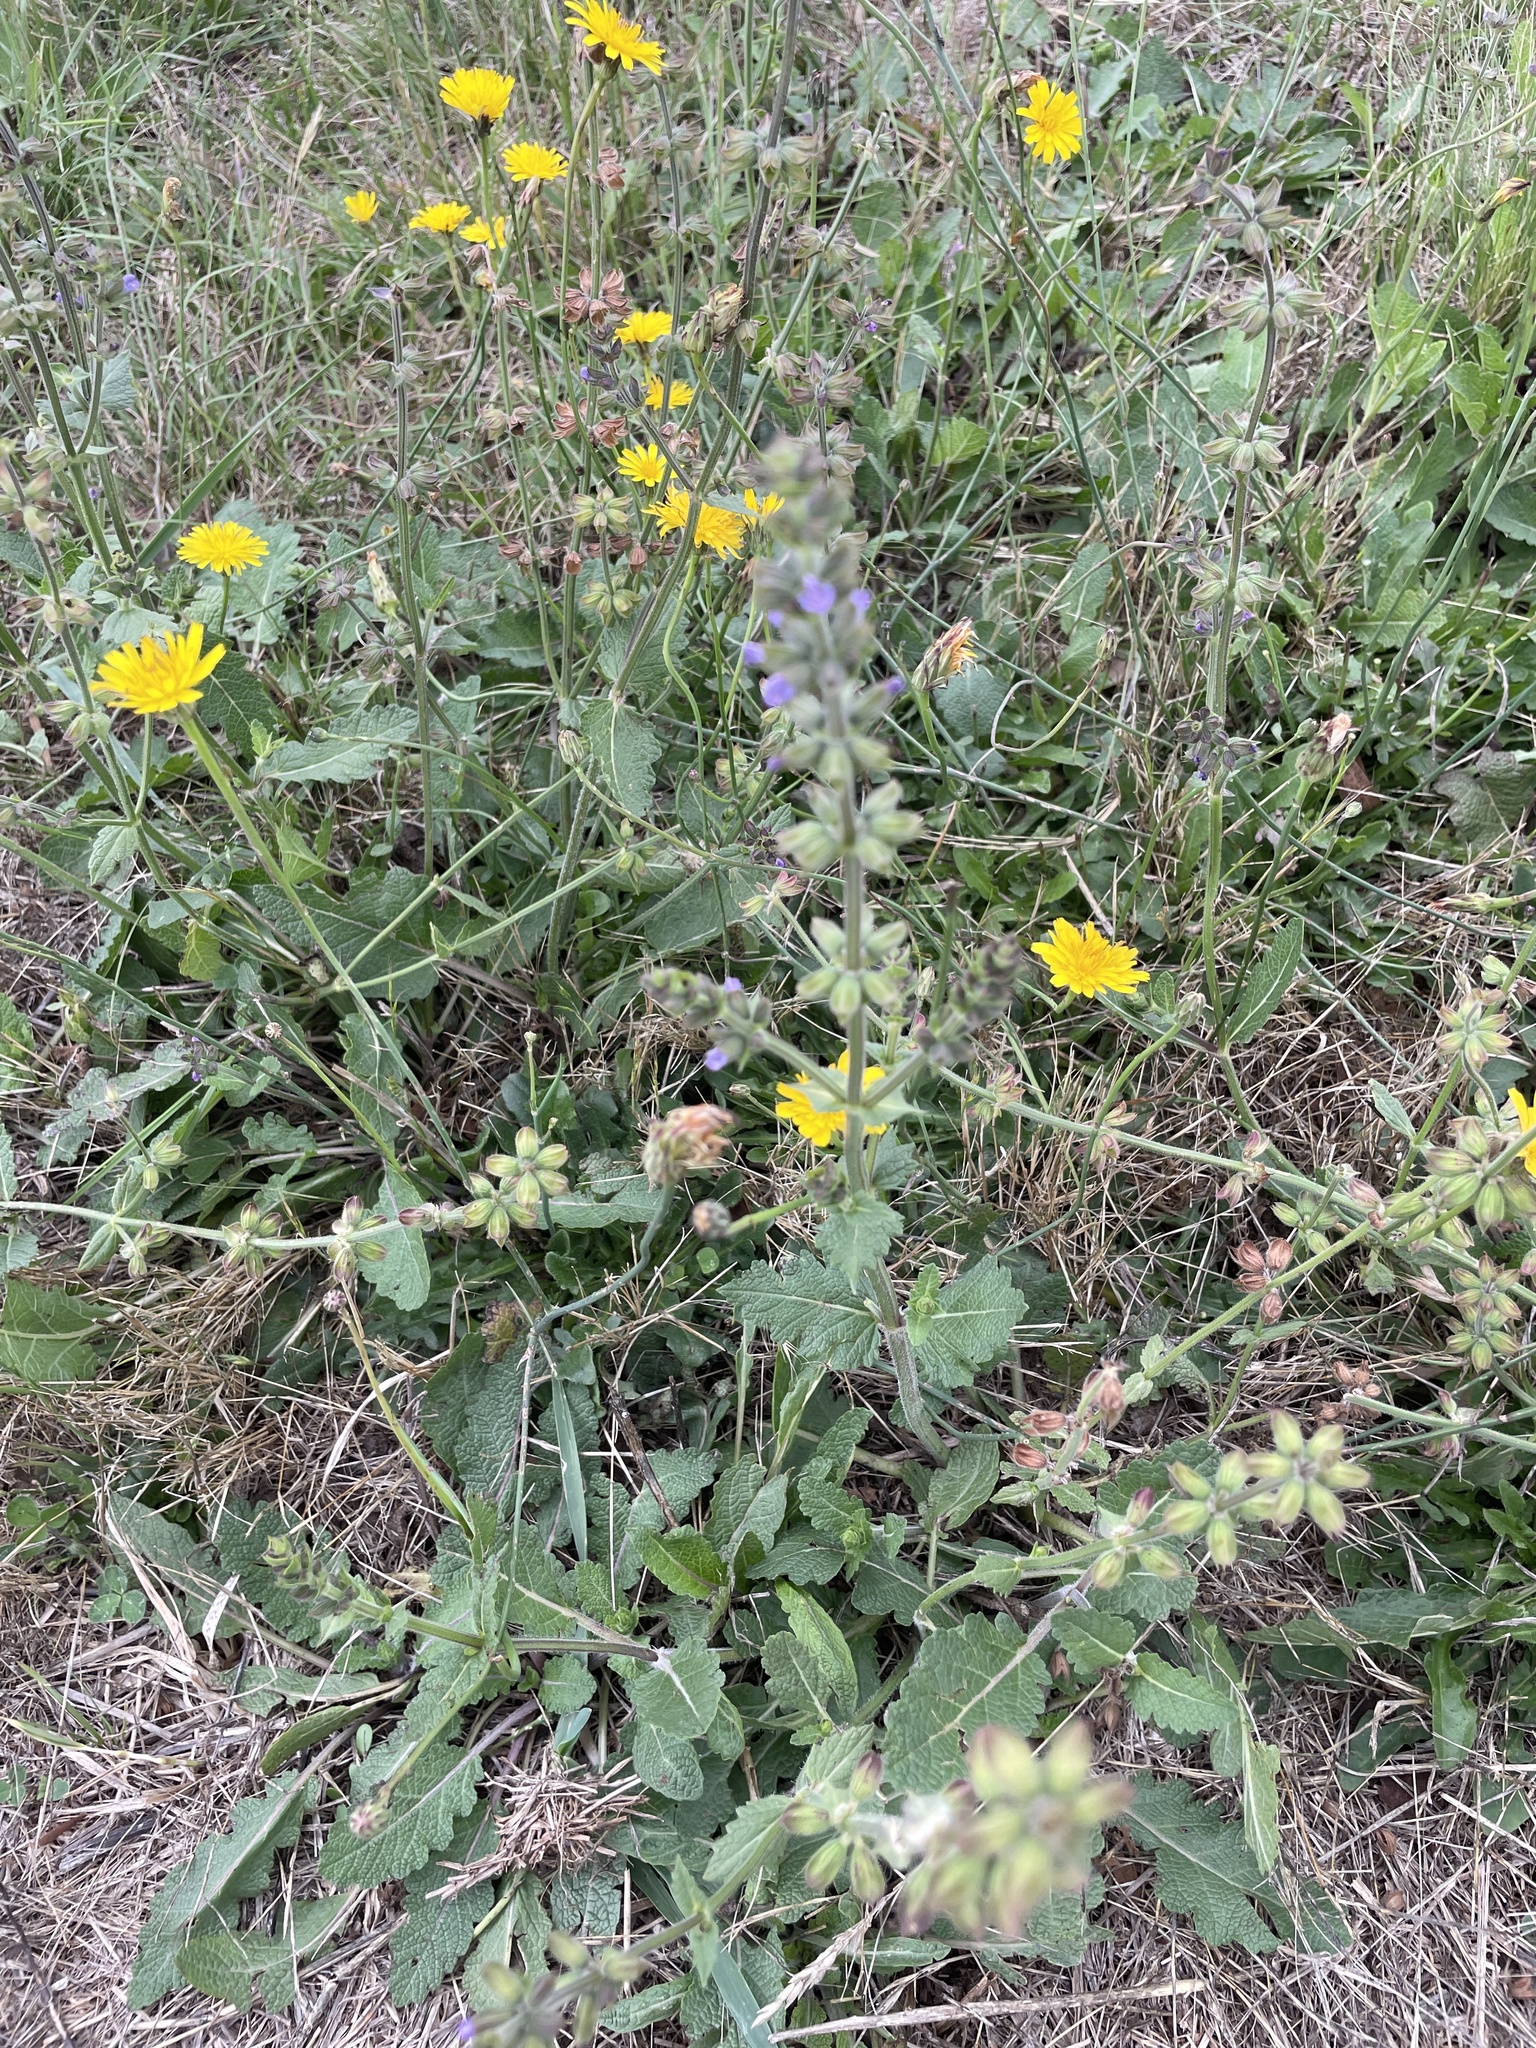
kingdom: Plantae
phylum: Tracheophyta
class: Magnoliopsida
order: Lamiales
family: Lamiaceae
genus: Salvia
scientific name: Salvia verbenaca
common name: Wild clary
